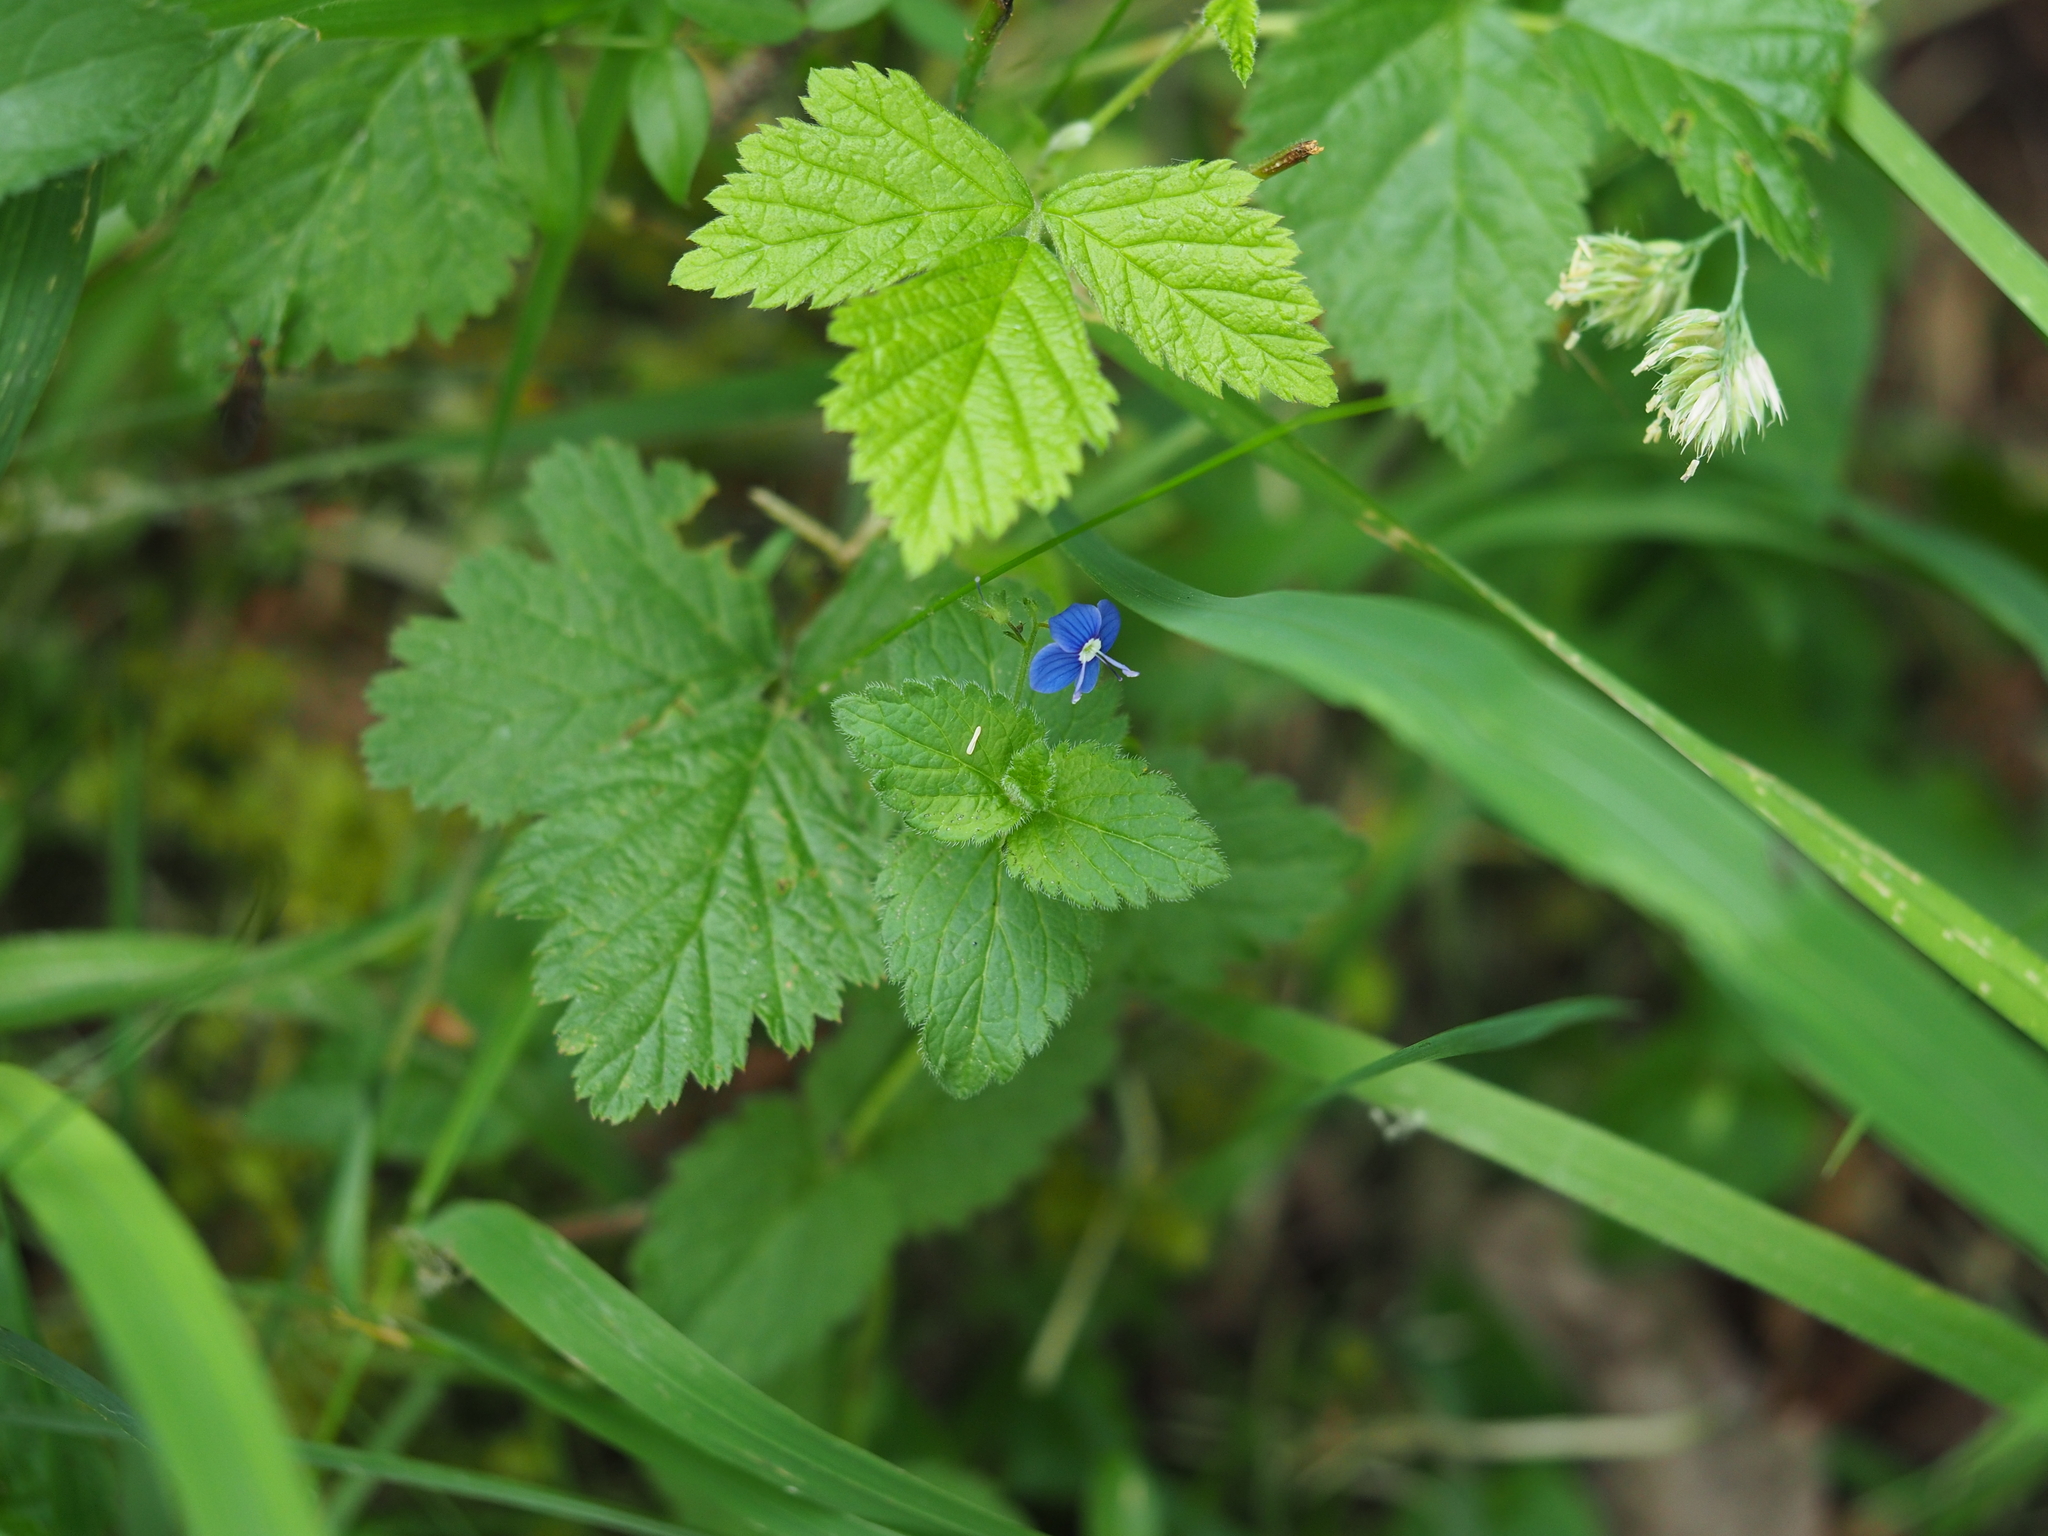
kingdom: Plantae
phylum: Tracheophyta
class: Magnoliopsida
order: Lamiales
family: Plantaginaceae
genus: Veronica
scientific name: Veronica chamaedrys
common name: Germander speedwell
